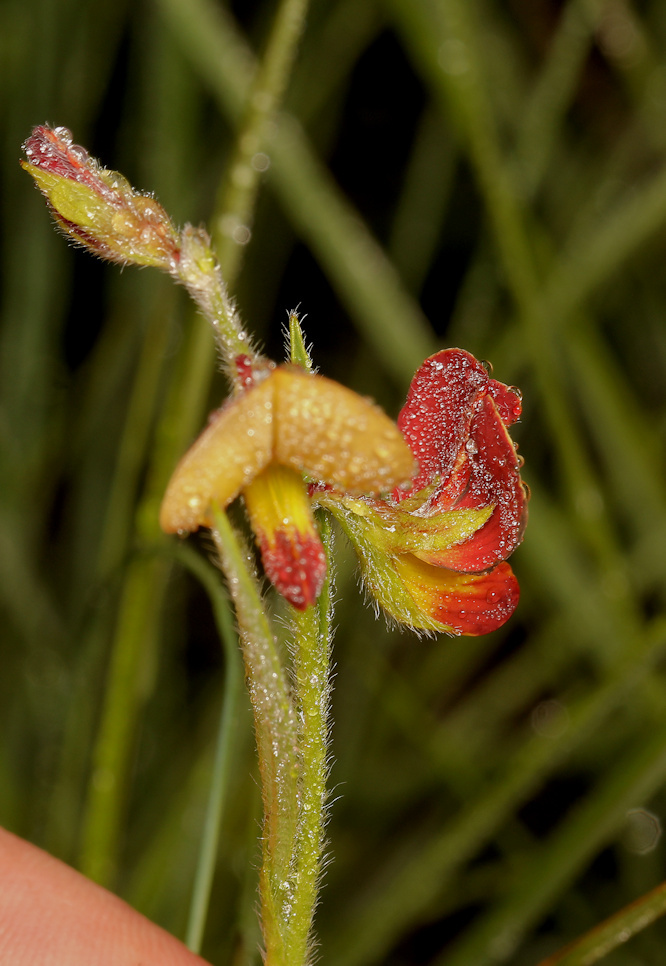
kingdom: Plantae
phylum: Tracheophyta
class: Magnoliopsida
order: Fabales
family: Fabaceae
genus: Argyrolobium
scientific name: Argyrolobium tuberosum
